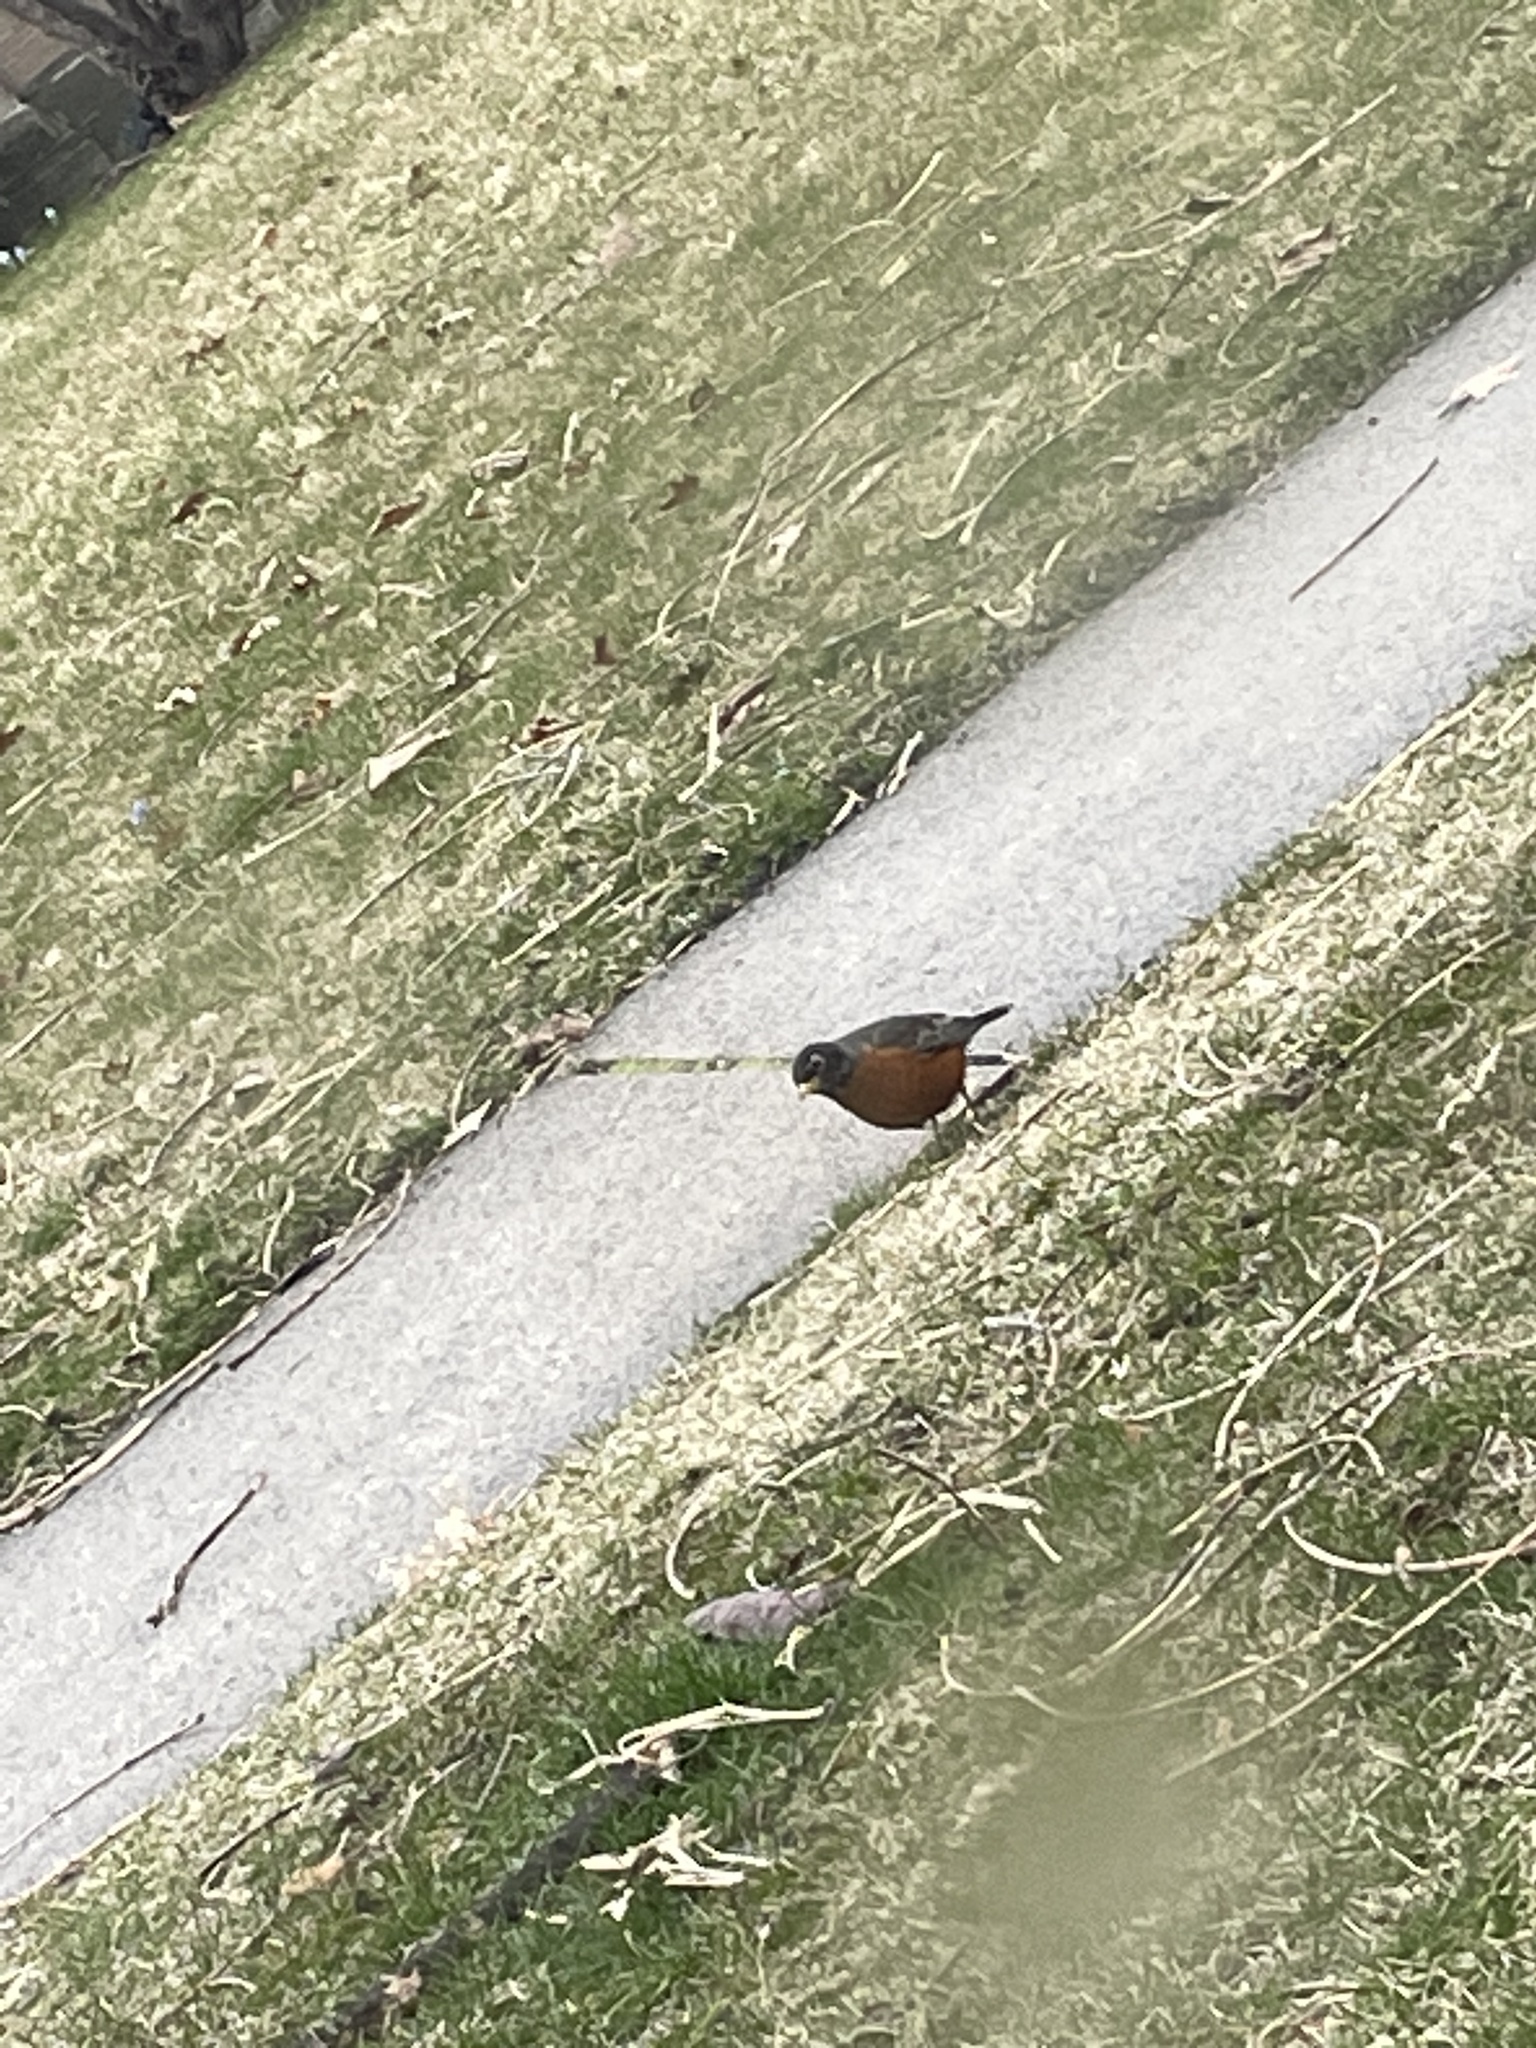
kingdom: Animalia
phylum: Chordata
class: Aves
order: Passeriformes
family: Turdidae
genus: Turdus
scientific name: Turdus migratorius
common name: American robin
